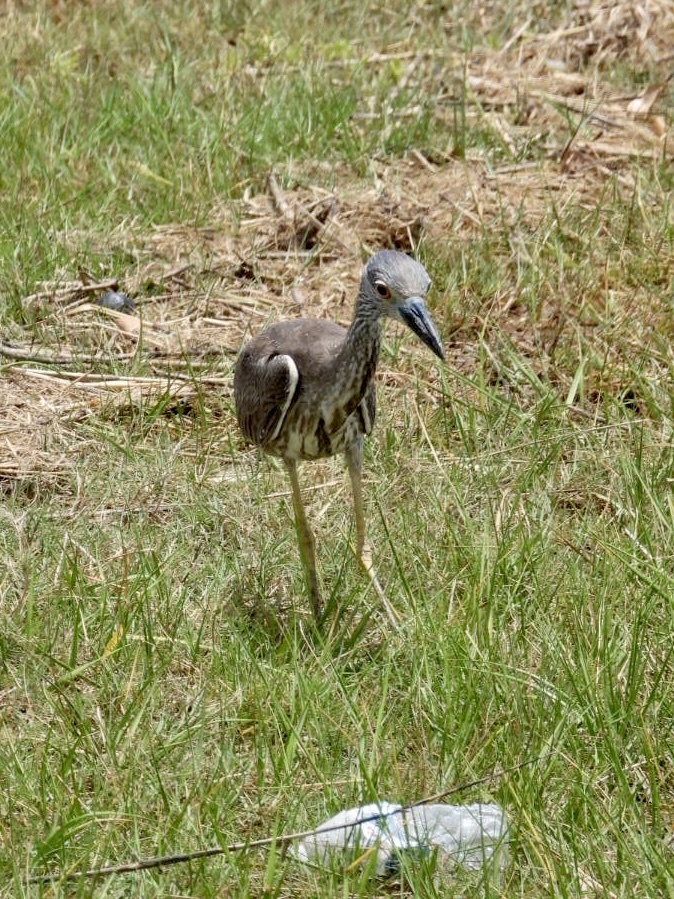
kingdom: Animalia
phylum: Chordata
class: Aves
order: Pelecaniformes
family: Ardeidae
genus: Nyctanassa
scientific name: Nyctanassa violacea
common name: Yellow-crowned night heron
